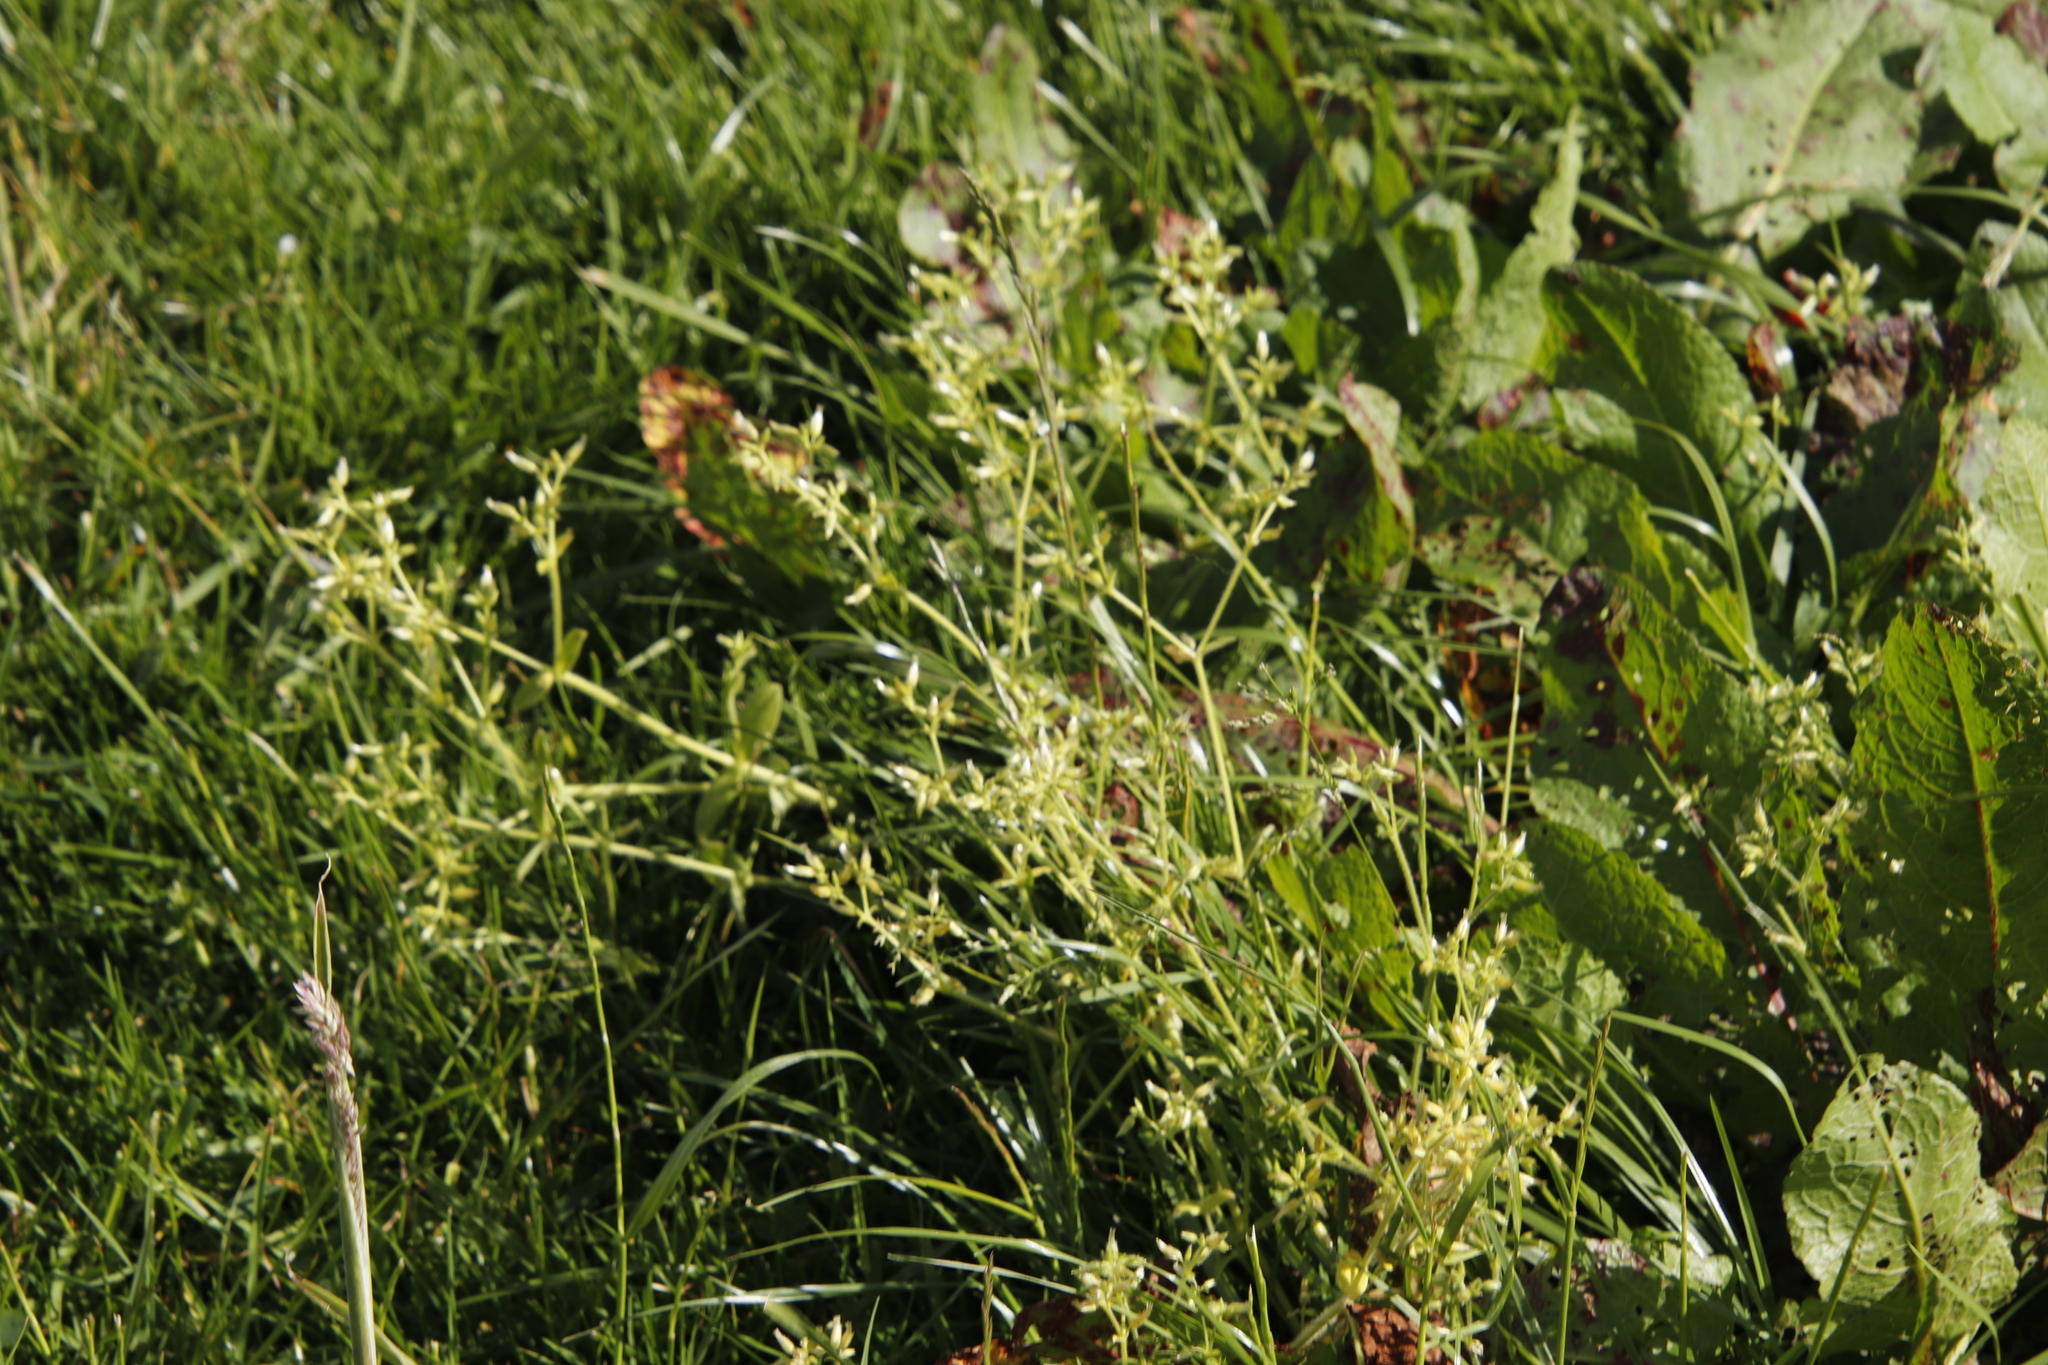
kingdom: Plantae
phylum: Tracheophyta
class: Magnoliopsida
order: Caryophyllales
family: Caryophyllaceae
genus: Cerastium
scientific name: Cerastium fontanum
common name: Common mouse-ear
